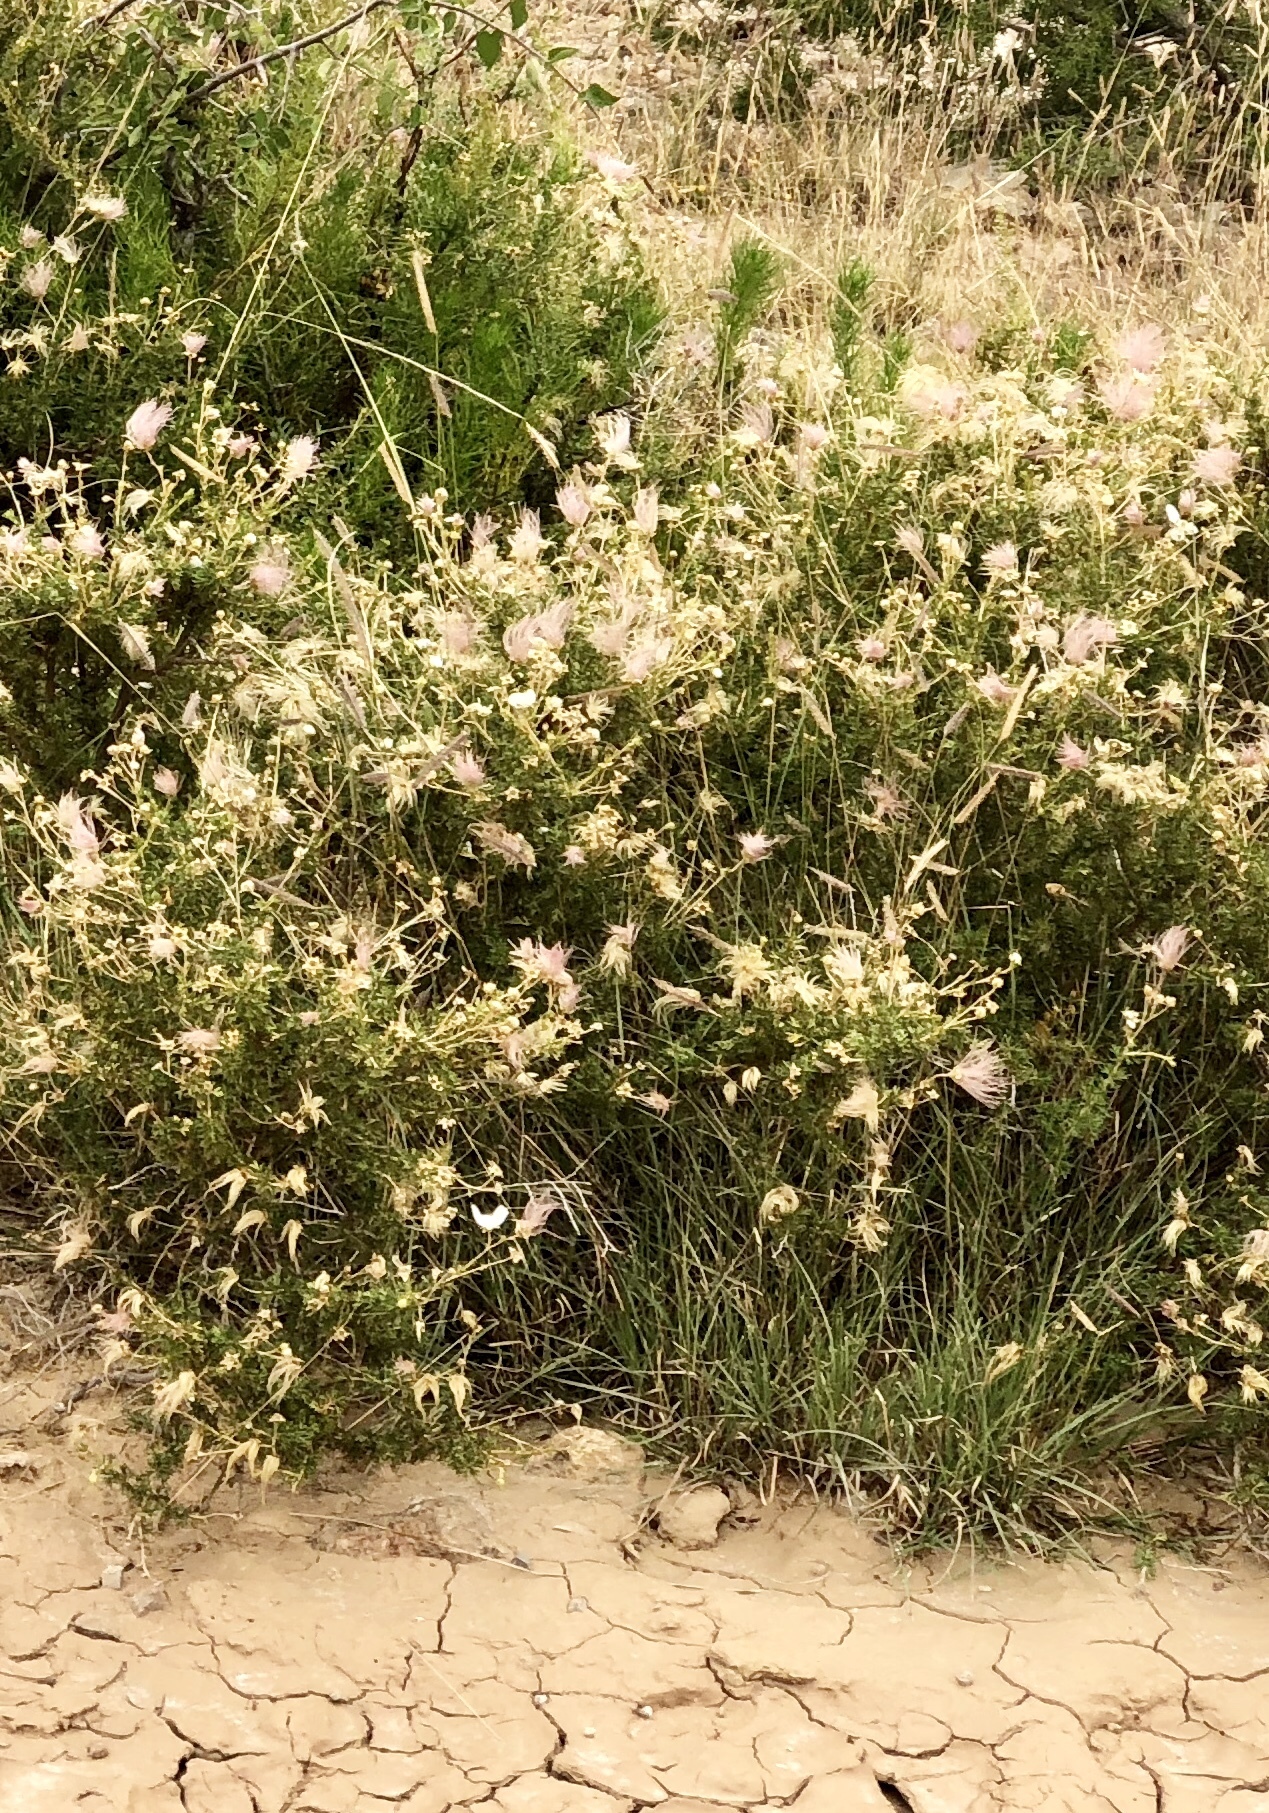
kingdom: Plantae
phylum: Tracheophyta
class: Magnoliopsida
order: Rosales
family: Rosaceae
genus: Fallugia
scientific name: Fallugia paradoxa
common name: Apache-plume
